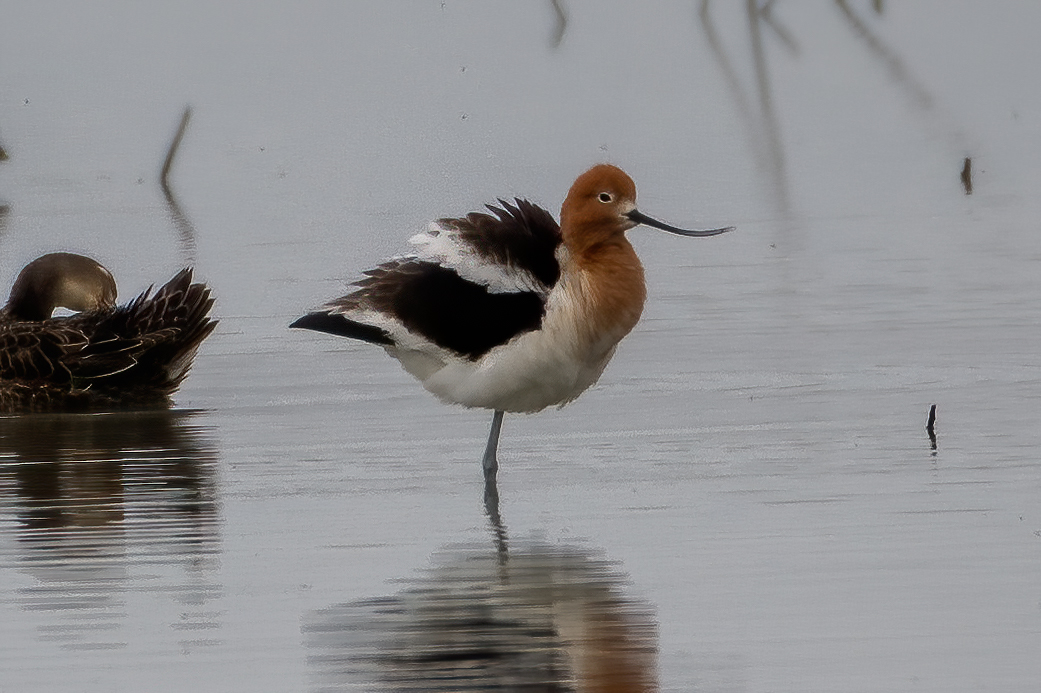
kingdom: Animalia
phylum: Chordata
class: Aves
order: Charadriiformes
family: Recurvirostridae
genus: Recurvirostra
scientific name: Recurvirostra americana
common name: American avocet
